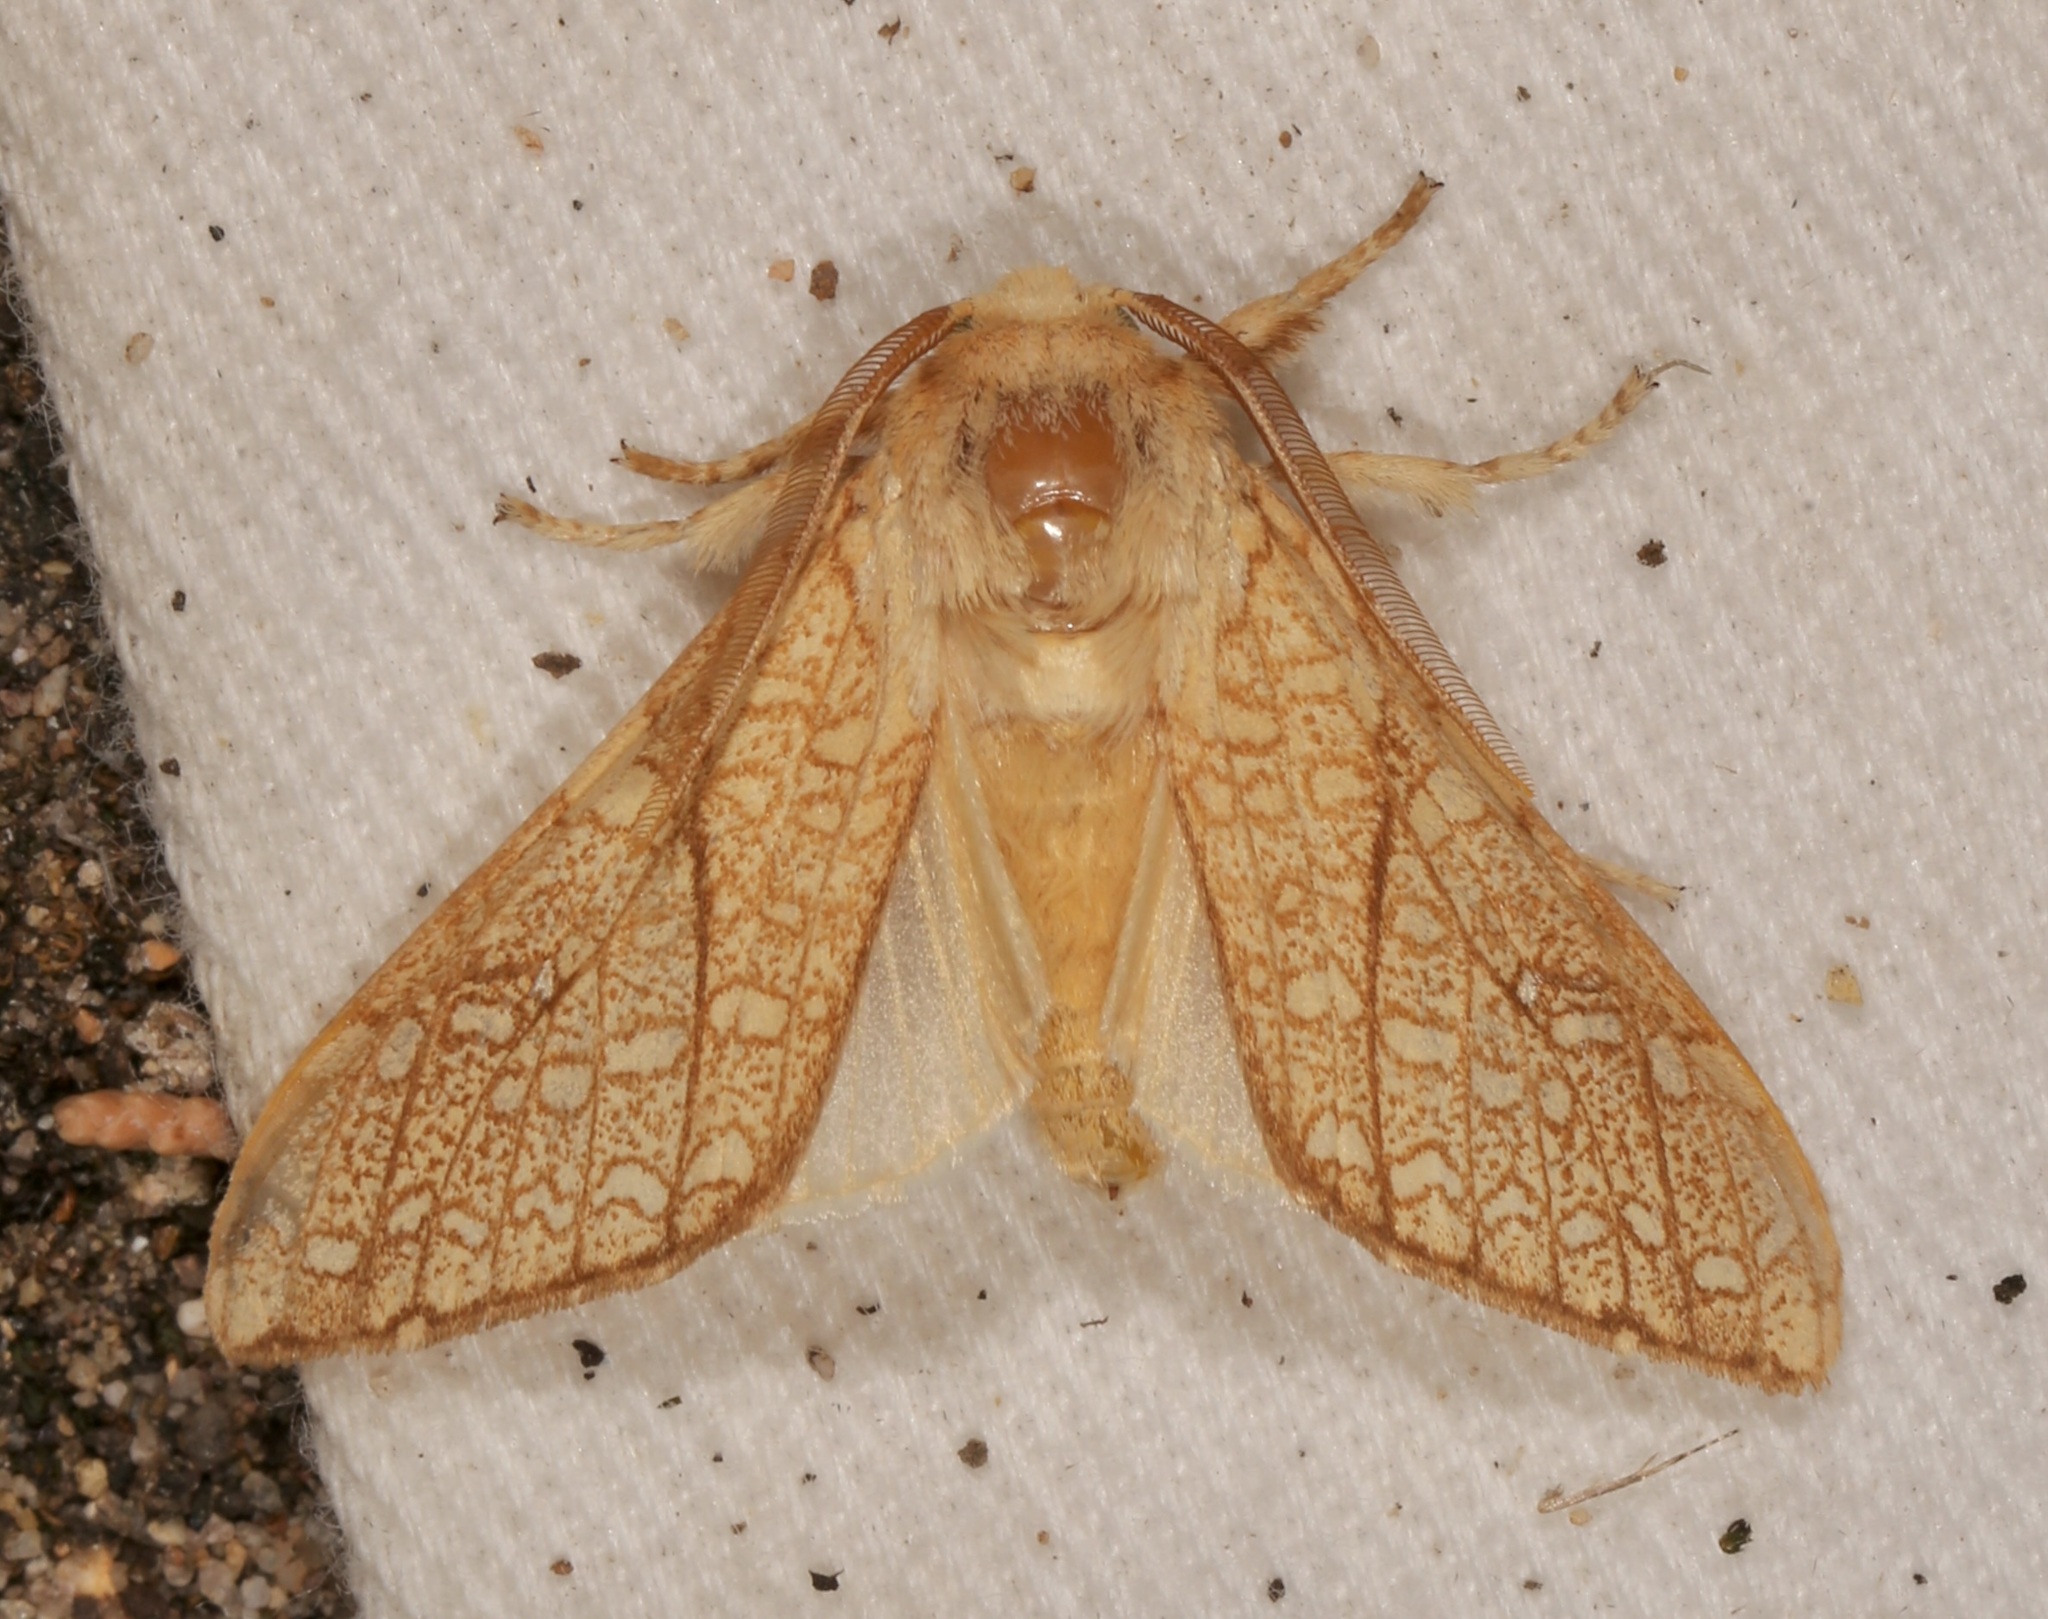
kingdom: Animalia
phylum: Arthropoda
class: Insecta
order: Lepidoptera
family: Erebidae
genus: Lophocampa
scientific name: Lophocampa mixta
